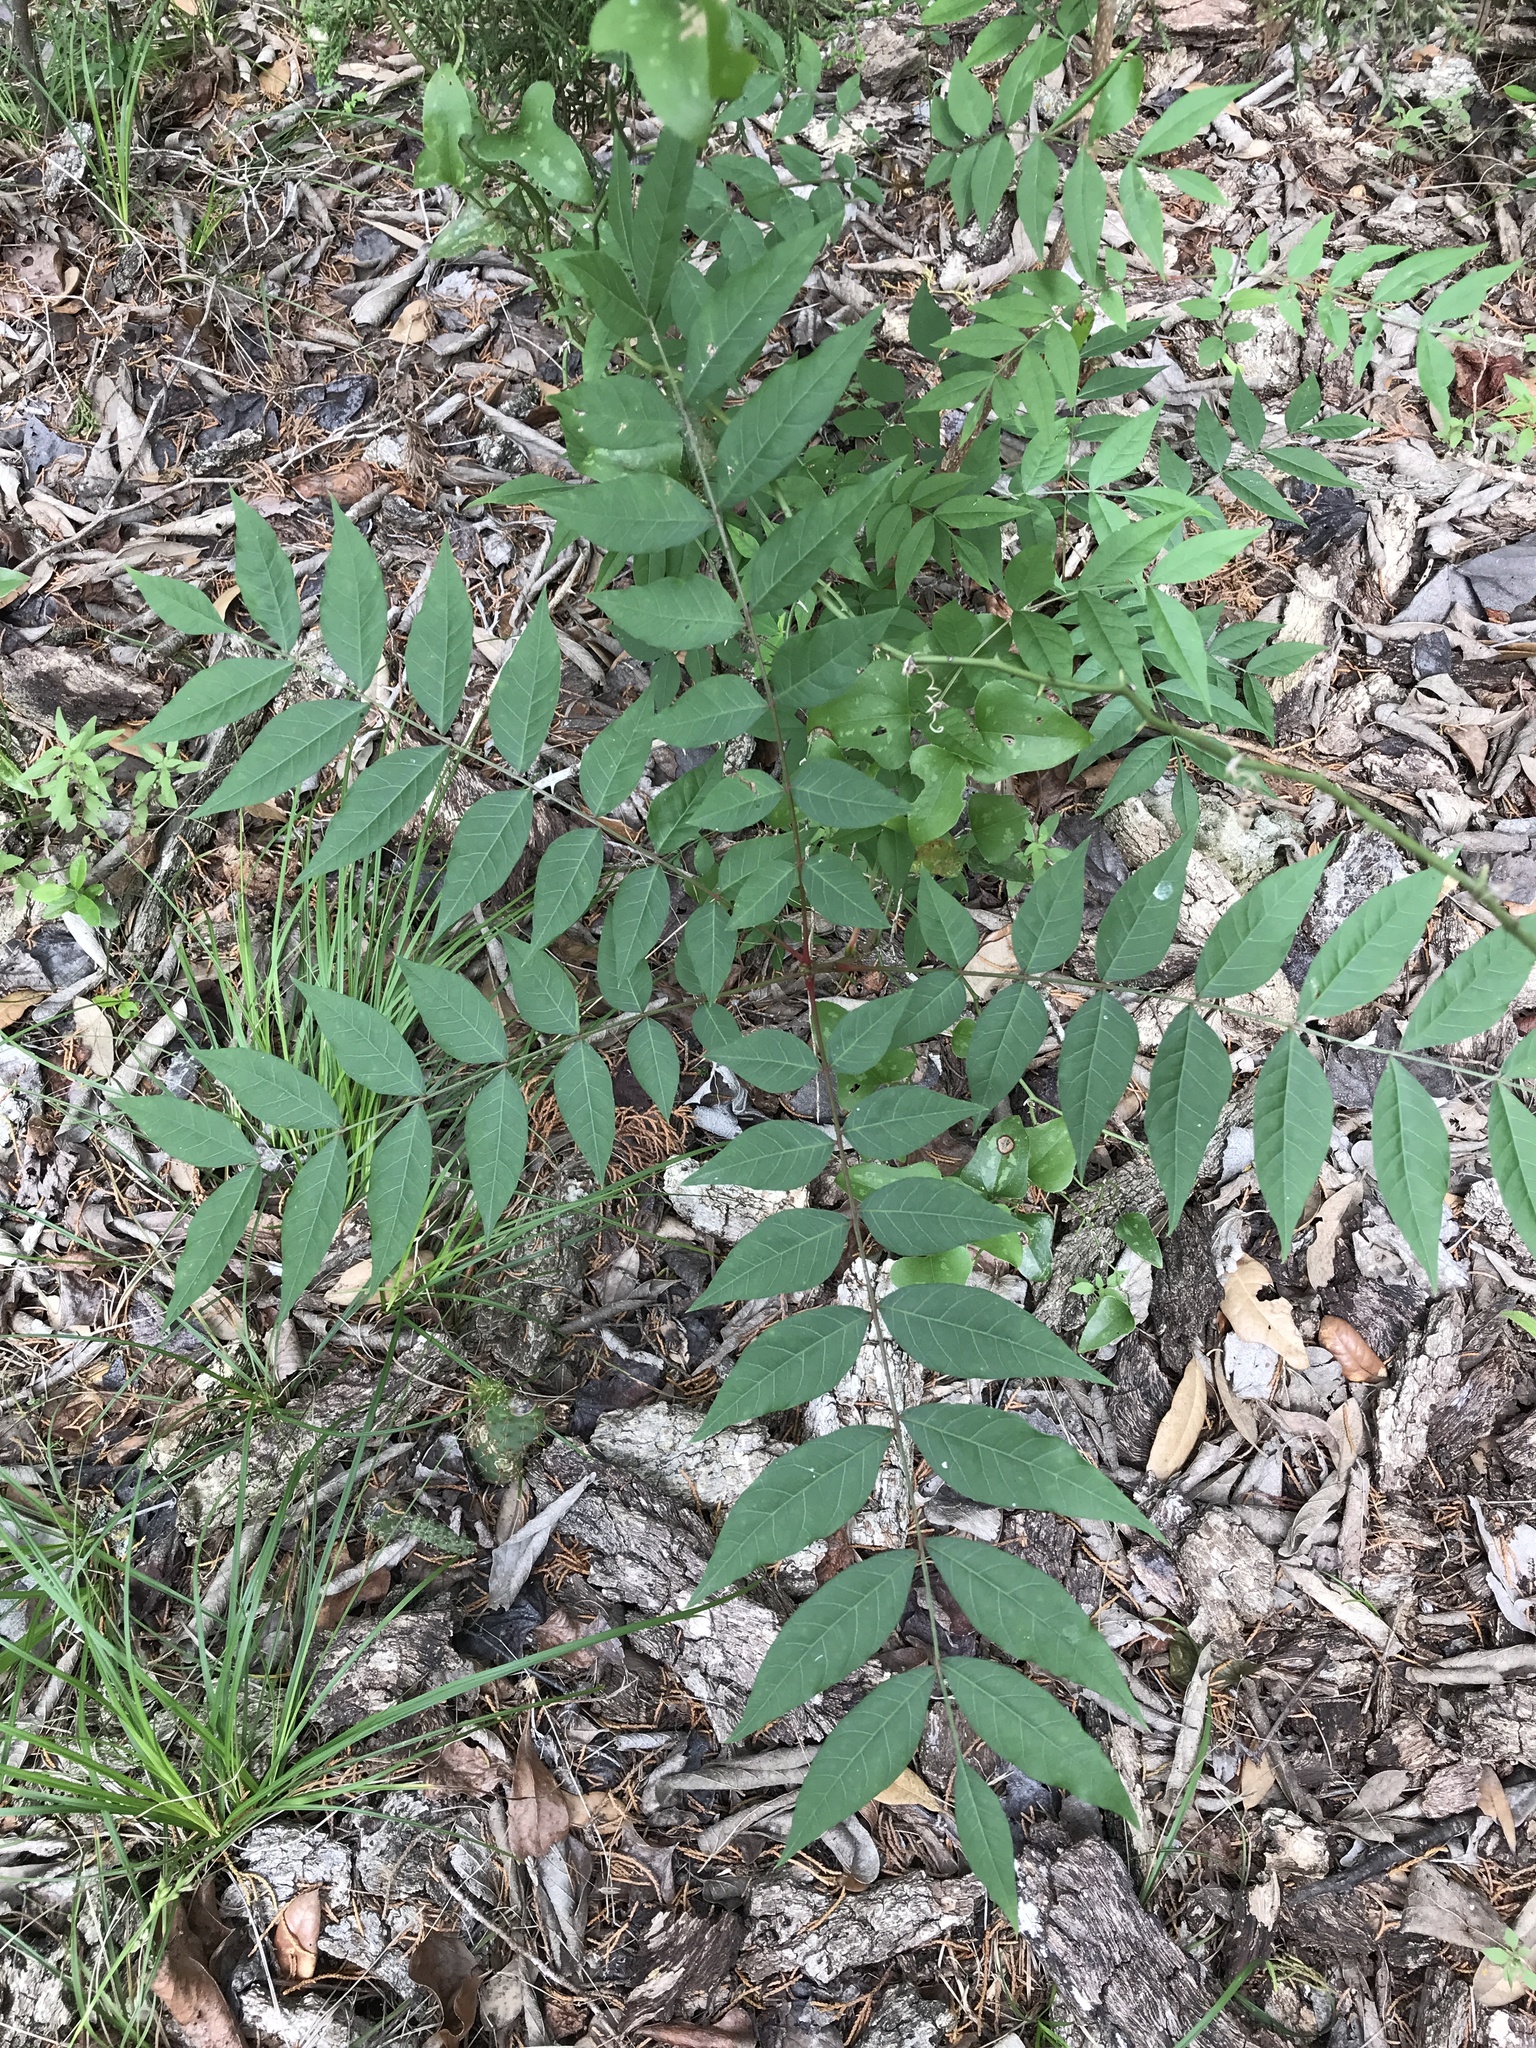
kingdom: Plantae
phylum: Tracheophyta
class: Magnoliopsida
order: Sapindales
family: Anacardiaceae
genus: Pistacia
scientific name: Pistacia chinensis
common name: Chinese pistache
